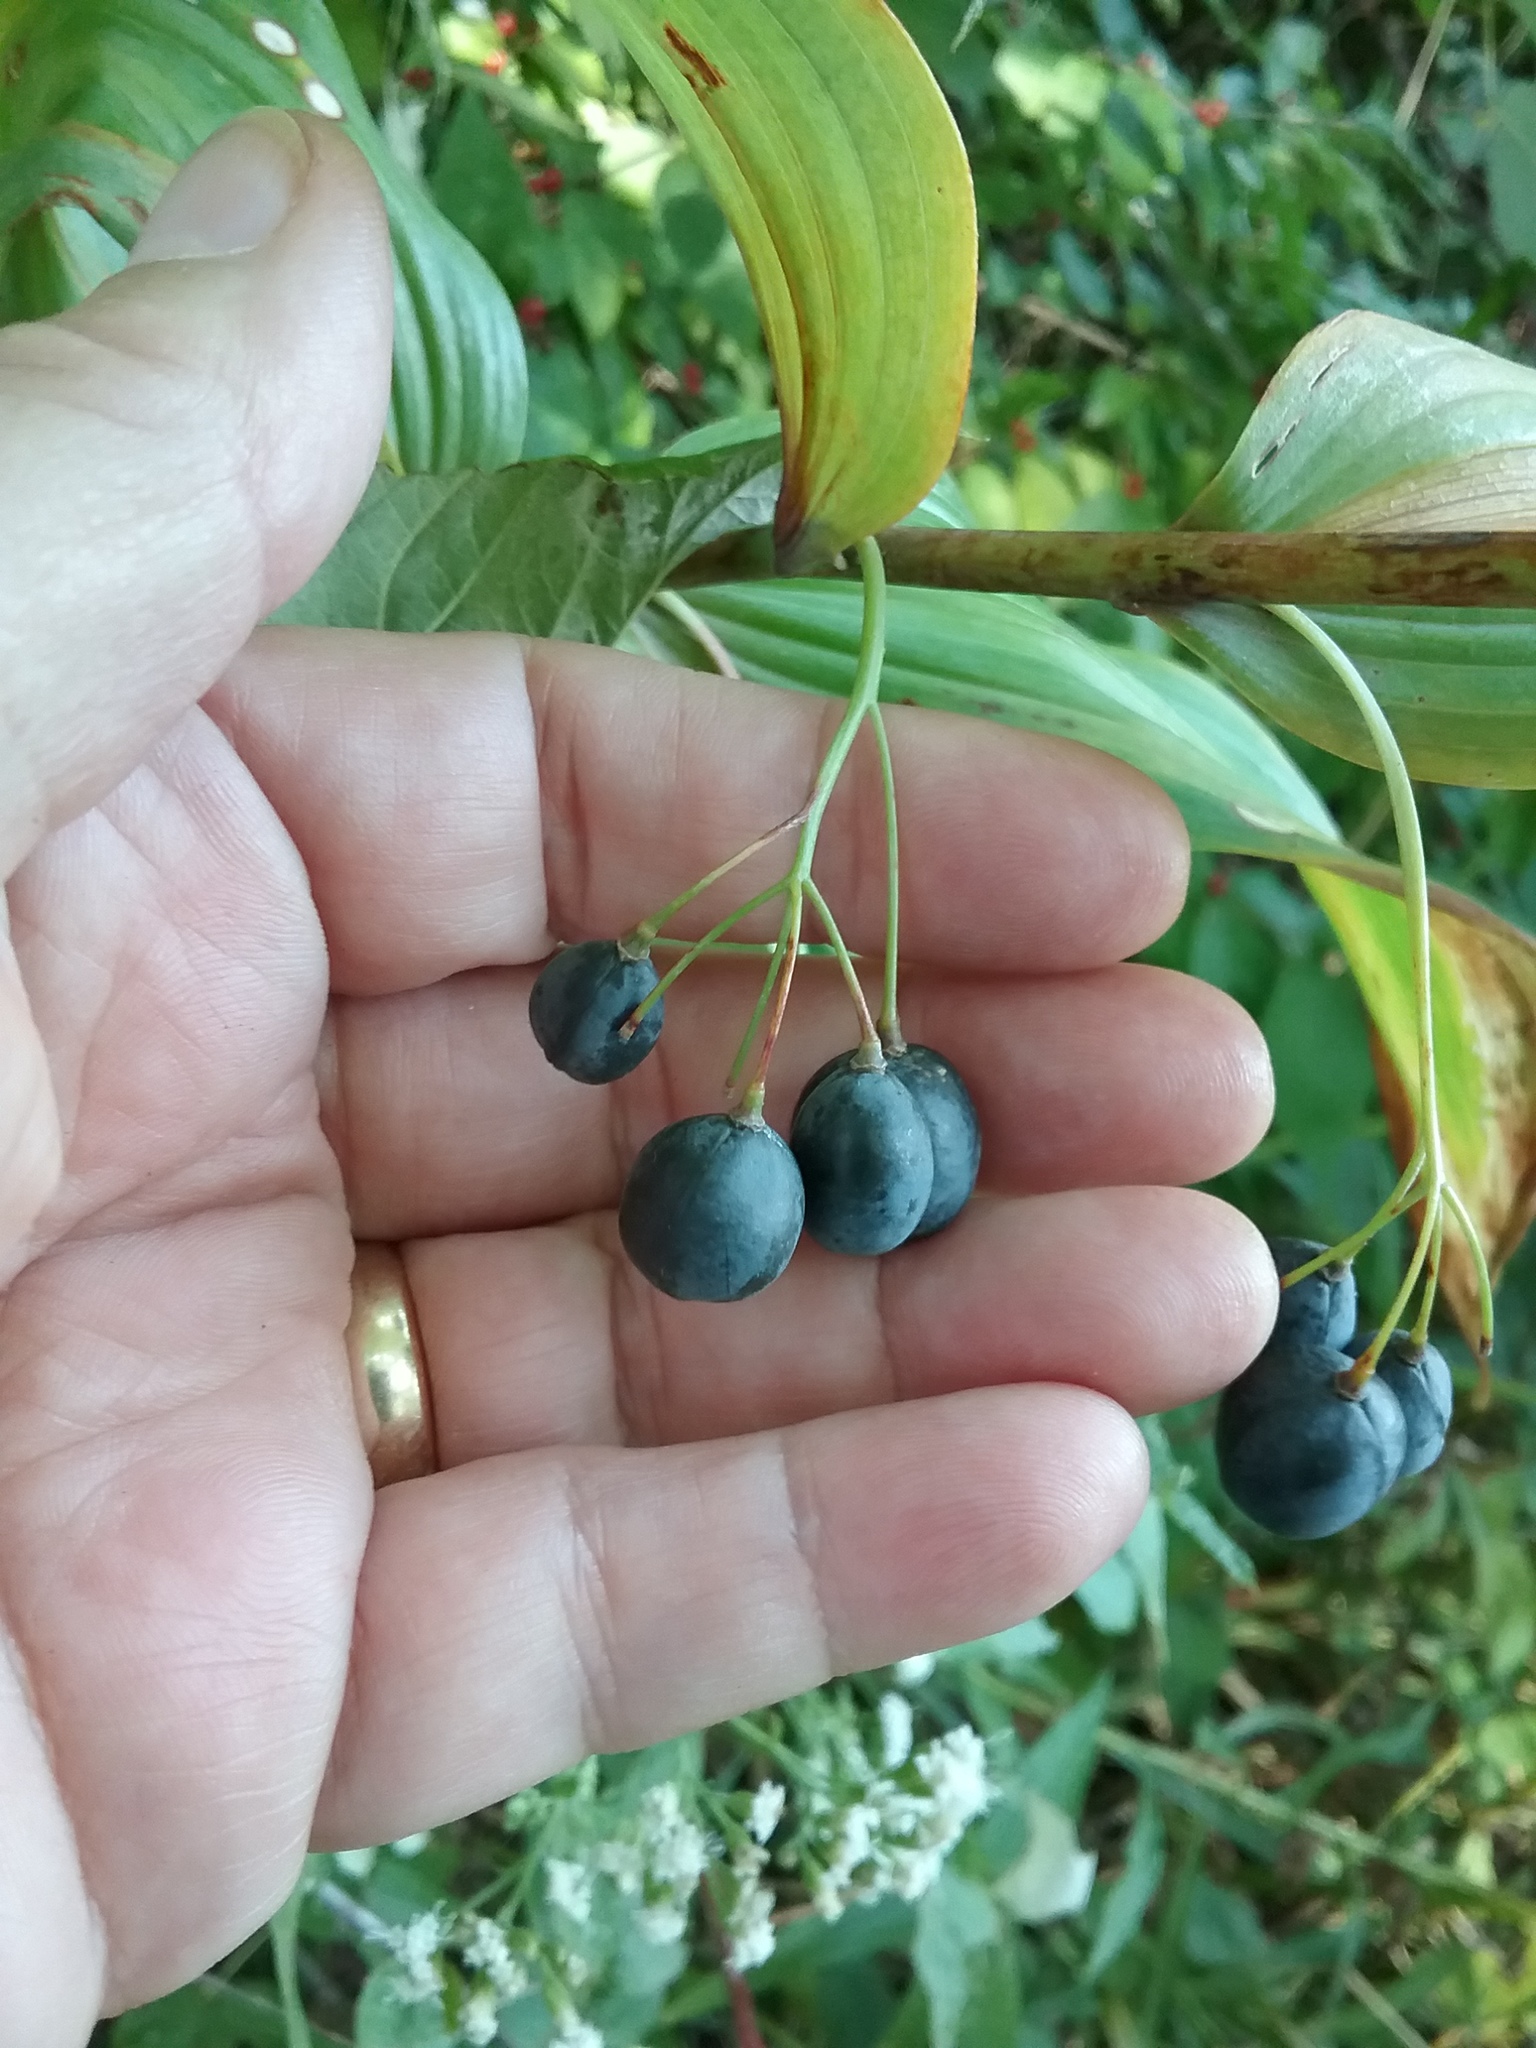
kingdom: Plantae
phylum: Tracheophyta
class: Liliopsida
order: Asparagales
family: Asparagaceae
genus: Polygonatum
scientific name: Polygonatum biflorum
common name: American solomon's-seal
